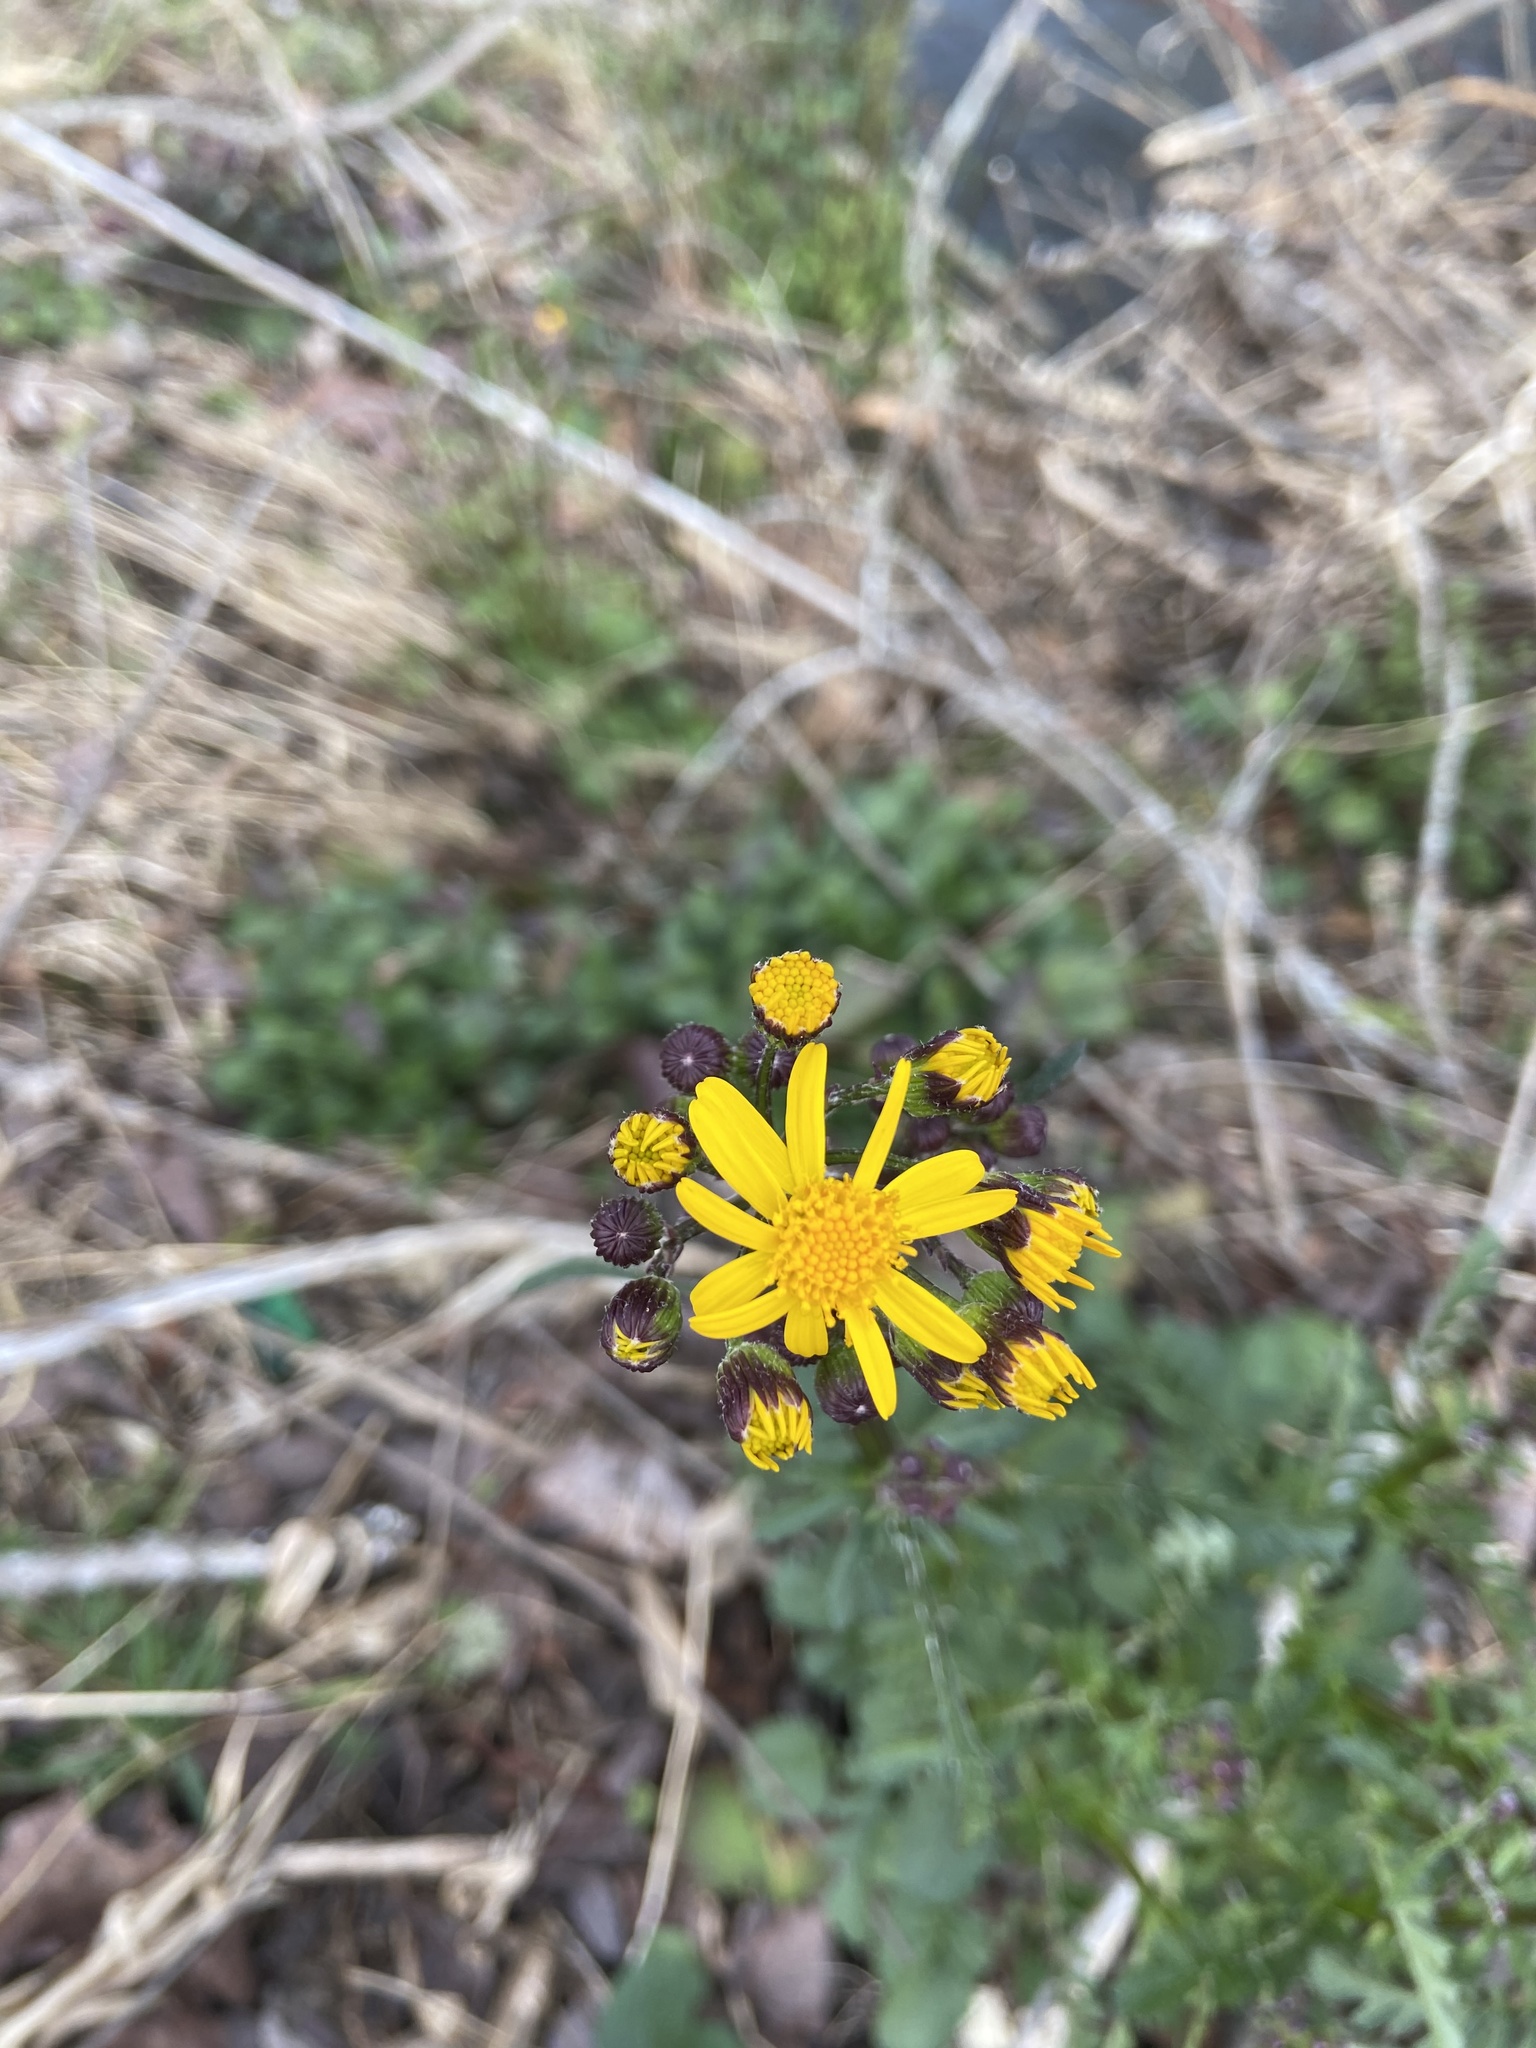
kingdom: Plantae
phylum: Tracheophyta
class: Magnoliopsida
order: Asterales
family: Asteraceae
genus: Packera
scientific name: Packera aurea
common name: Golden groundsel
